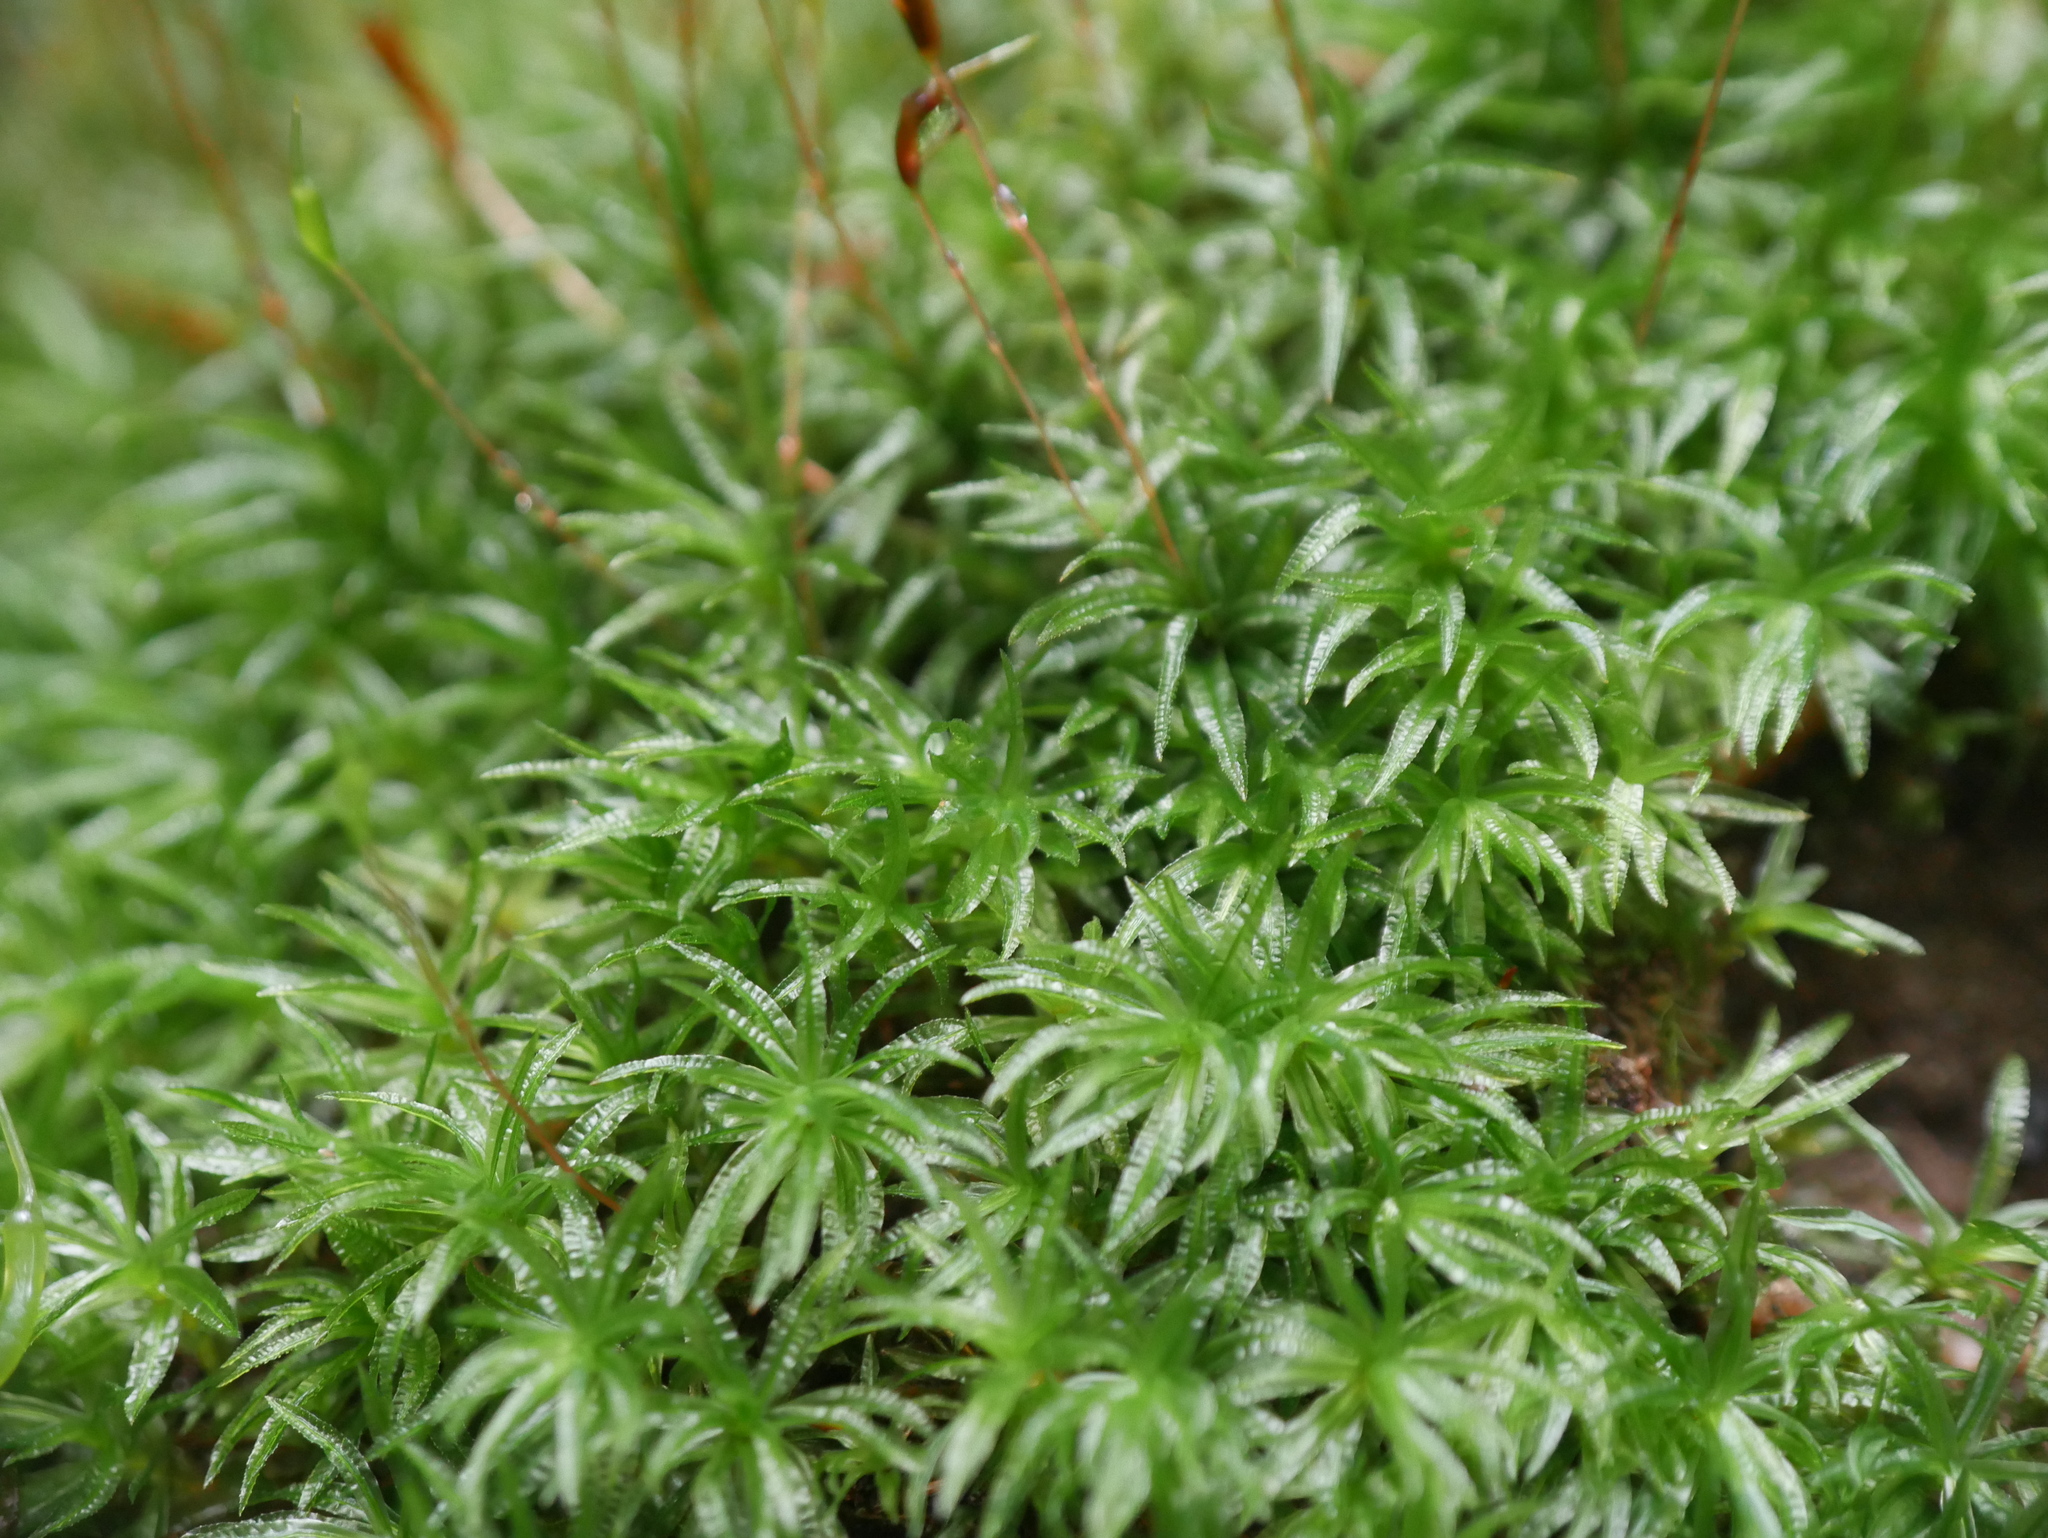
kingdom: Plantae
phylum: Bryophyta
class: Polytrichopsida
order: Polytrichales
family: Polytrichaceae
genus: Atrichum
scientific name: Atrichum undulatum
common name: Common smoothcap
